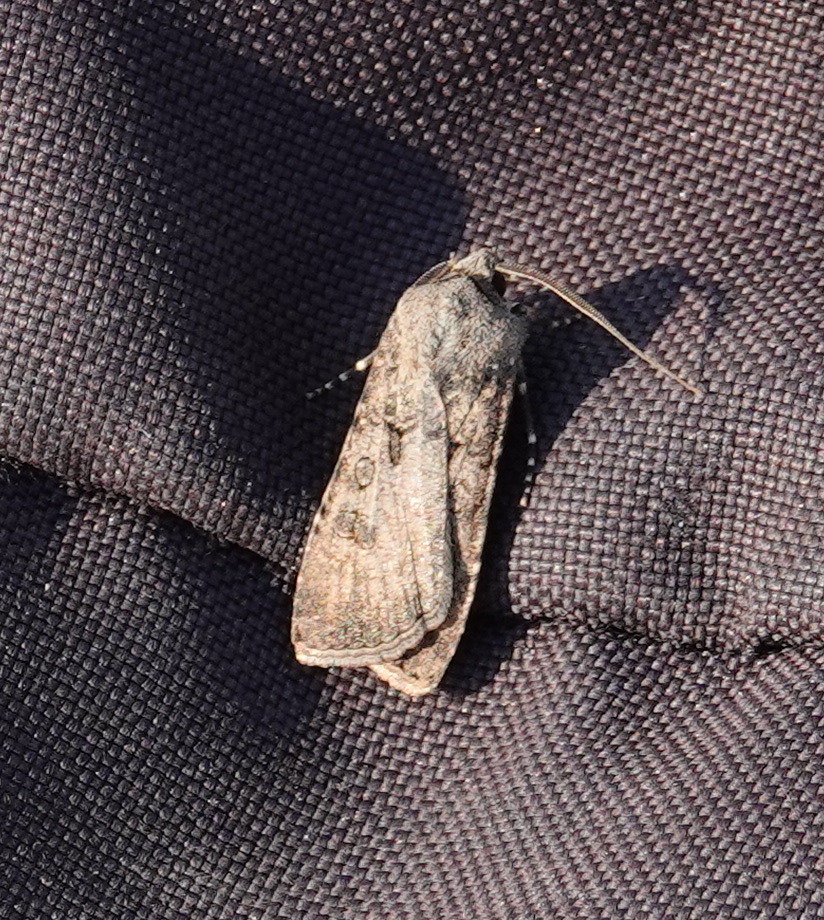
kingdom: Animalia
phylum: Arthropoda
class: Insecta
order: Lepidoptera
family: Noctuidae
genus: Agrotis
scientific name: Agrotis segetum
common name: Turnip moth
